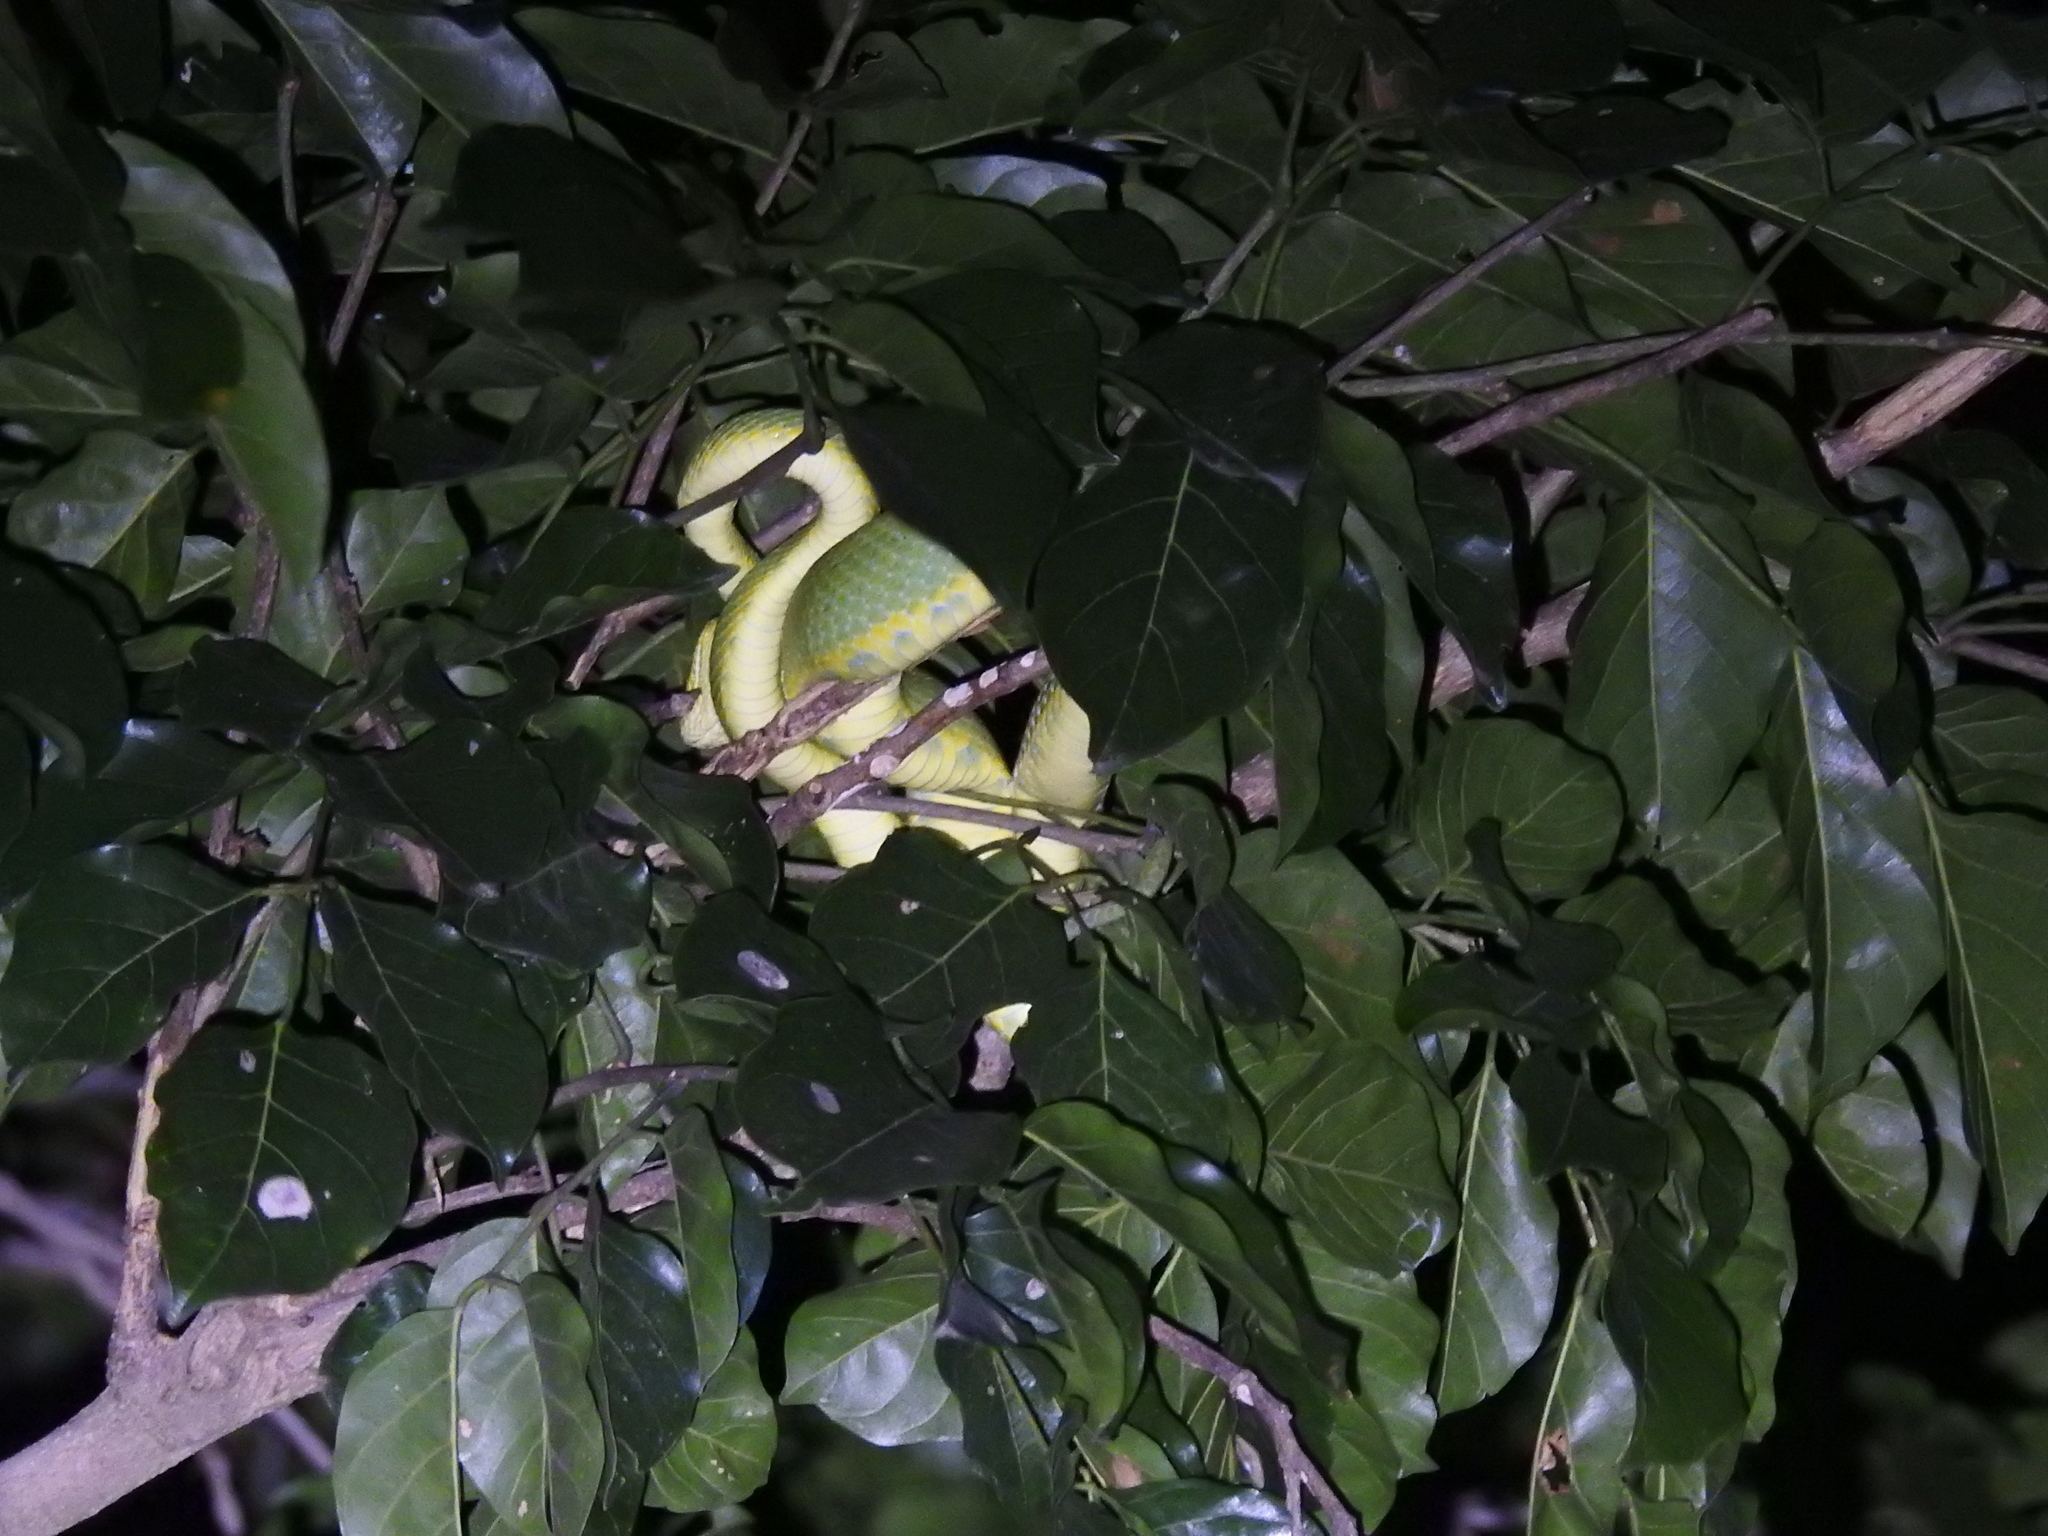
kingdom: Animalia
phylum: Chordata
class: Squamata
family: Viperidae
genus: Craspedocephalus
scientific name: Craspedocephalus gramineus
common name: Common bamboo viper
